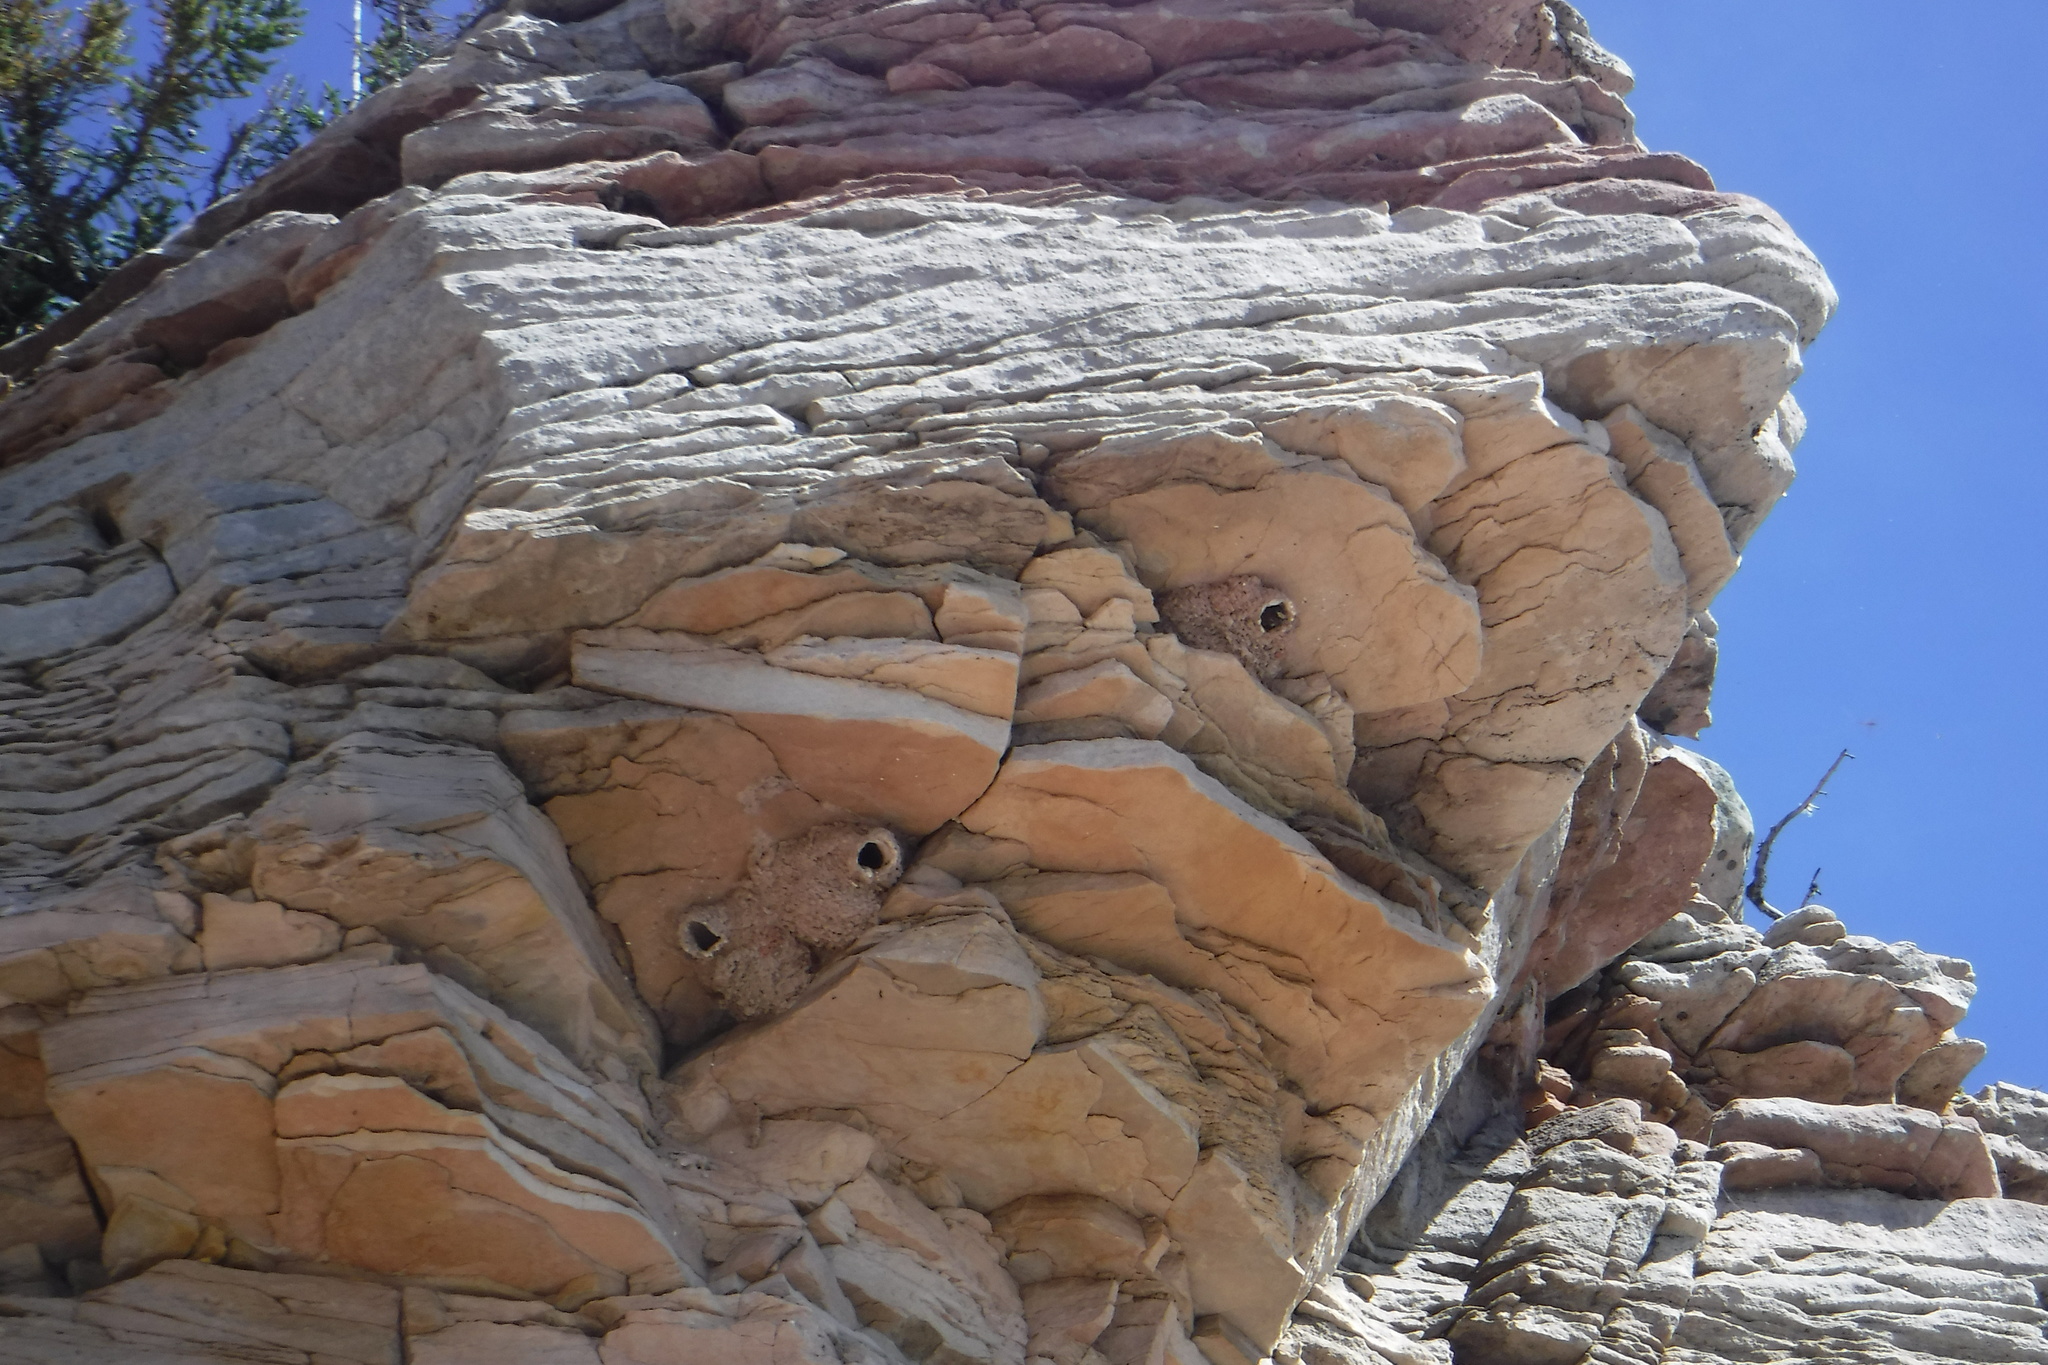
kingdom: Animalia
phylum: Chordata
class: Aves
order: Passeriformes
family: Hirundinidae
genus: Petrochelidon
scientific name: Petrochelidon pyrrhonota
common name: American cliff swallow
